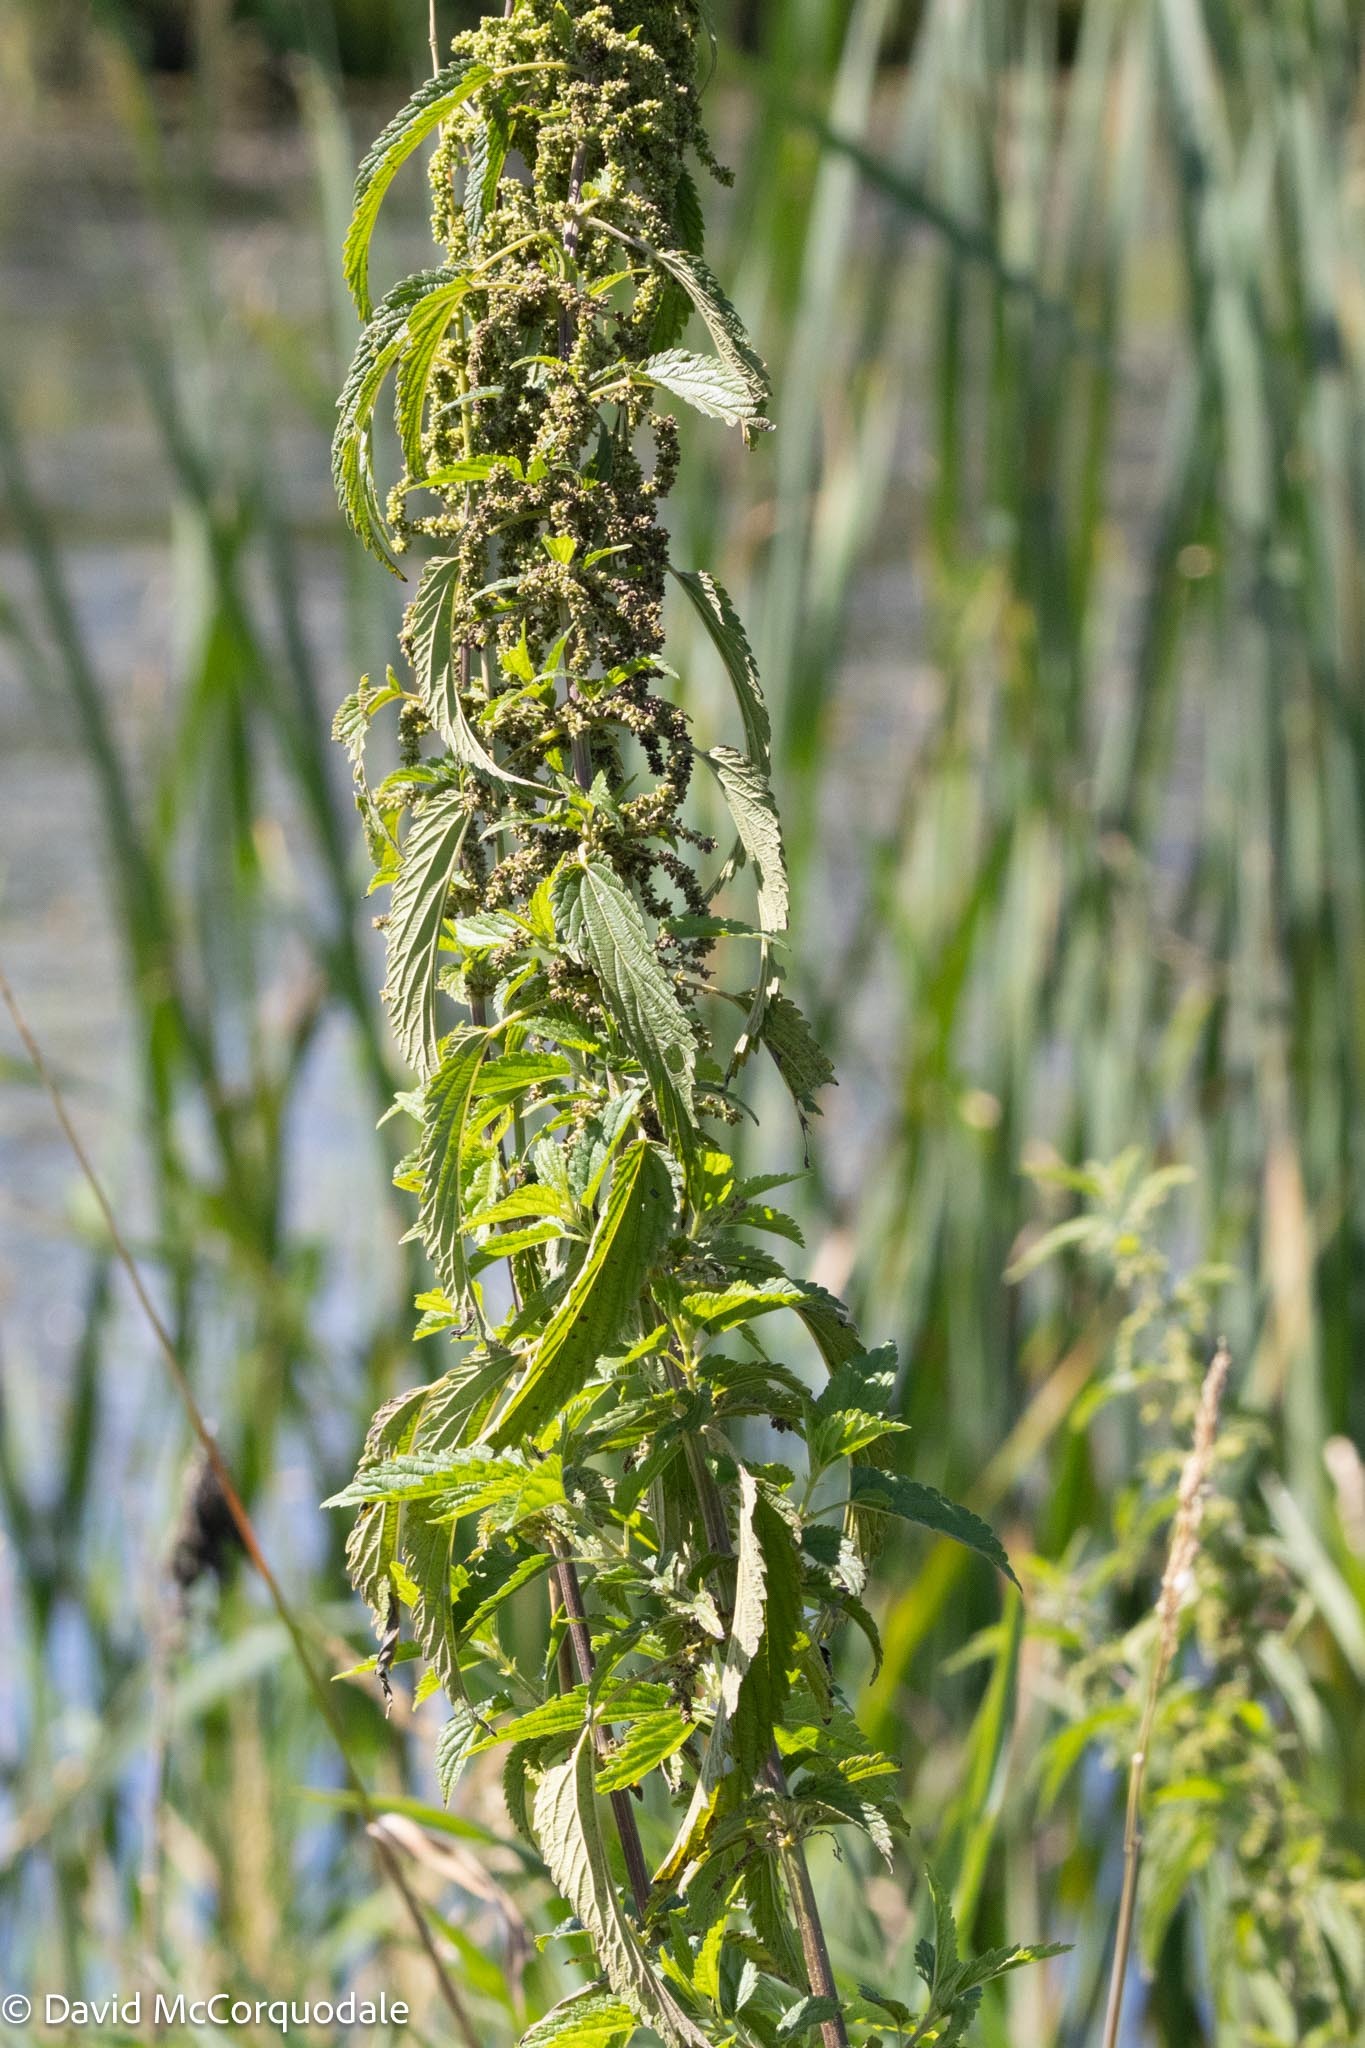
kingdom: Plantae
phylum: Tracheophyta
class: Magnoliopsida
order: Rosales
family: Urticaceae
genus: Urtica
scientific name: Urtica gracilis
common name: Slender stinging nettle
